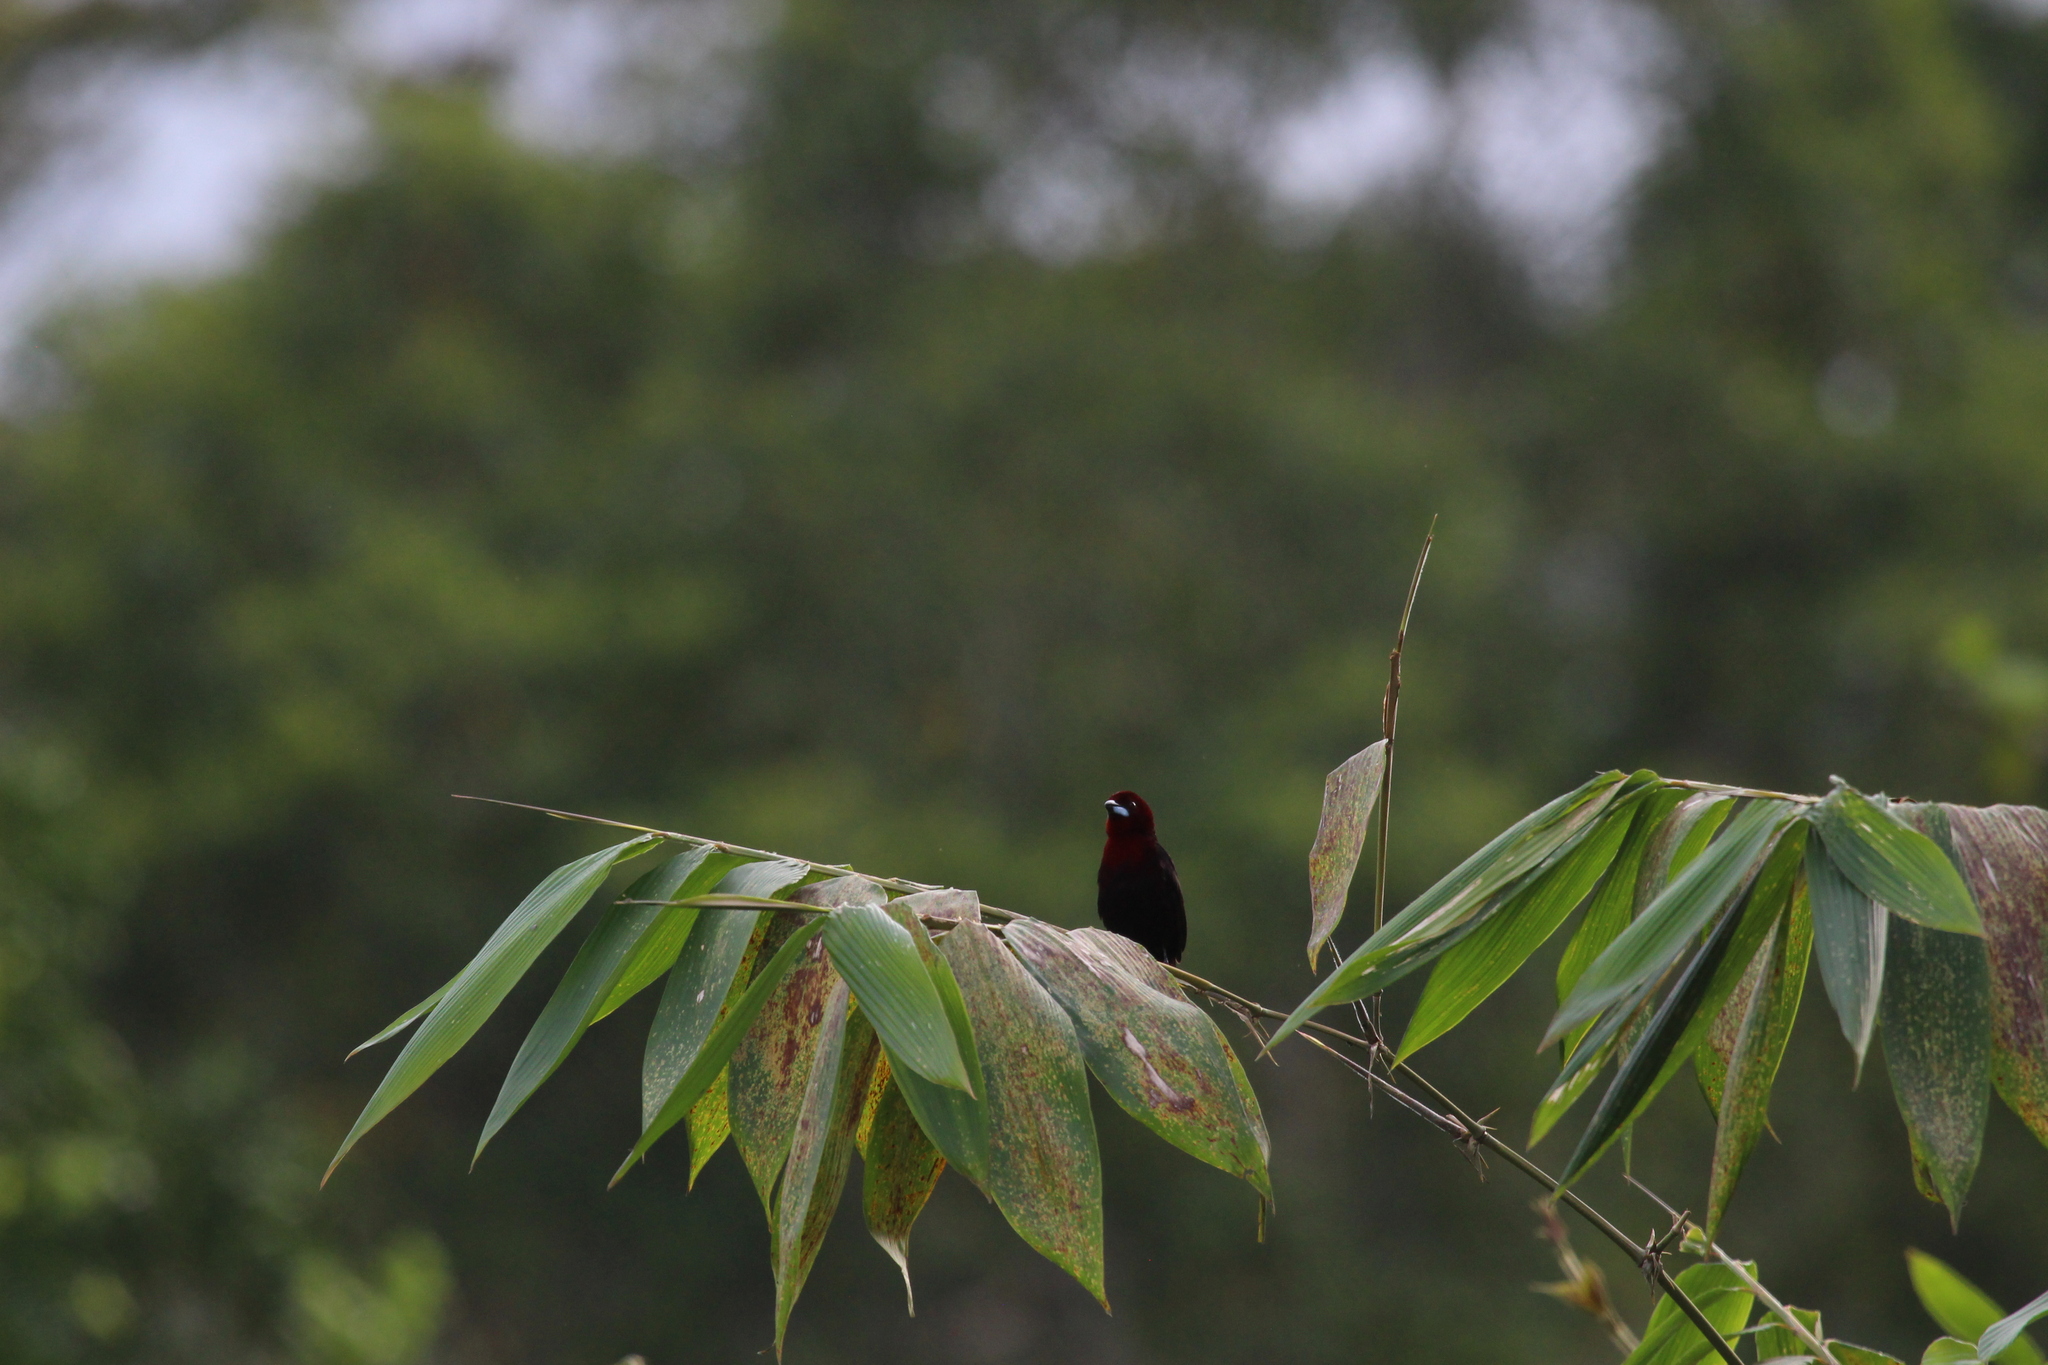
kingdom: Animalia
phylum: Chordata
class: Aves
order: Passeriformes
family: Thraupidae
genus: Ramphocelus
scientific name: Ramphocelus carbo
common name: Silver-beaked tanager
